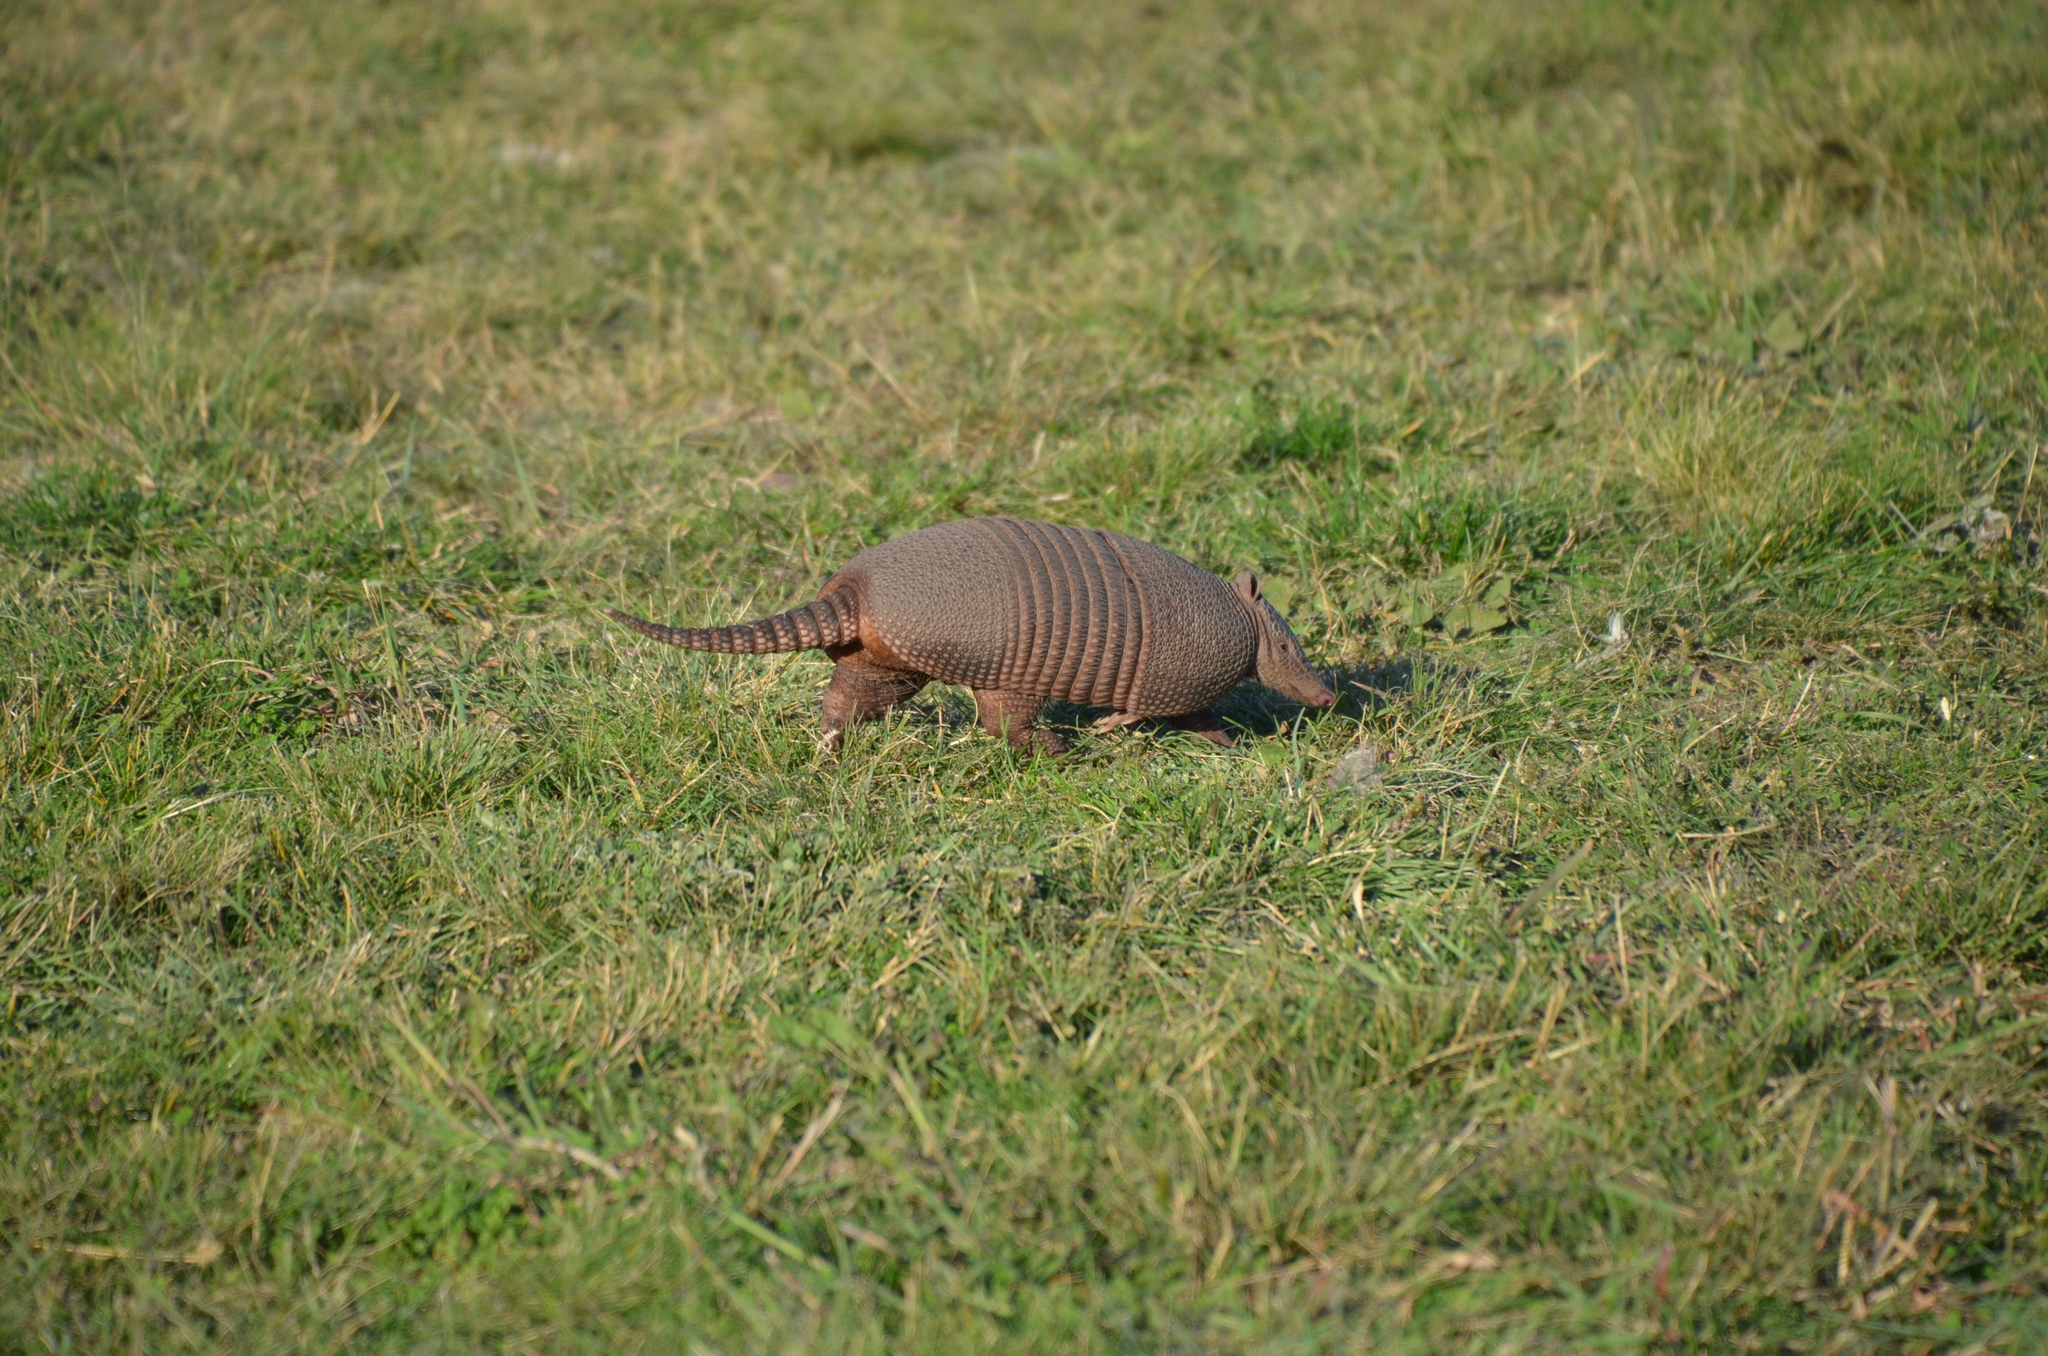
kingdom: Animalia
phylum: Chordata
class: Mammalia
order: Cingulata
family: Dasypodidae
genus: Dasypus
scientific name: Dasypus septemcinctus
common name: Seven-banded armadillo
